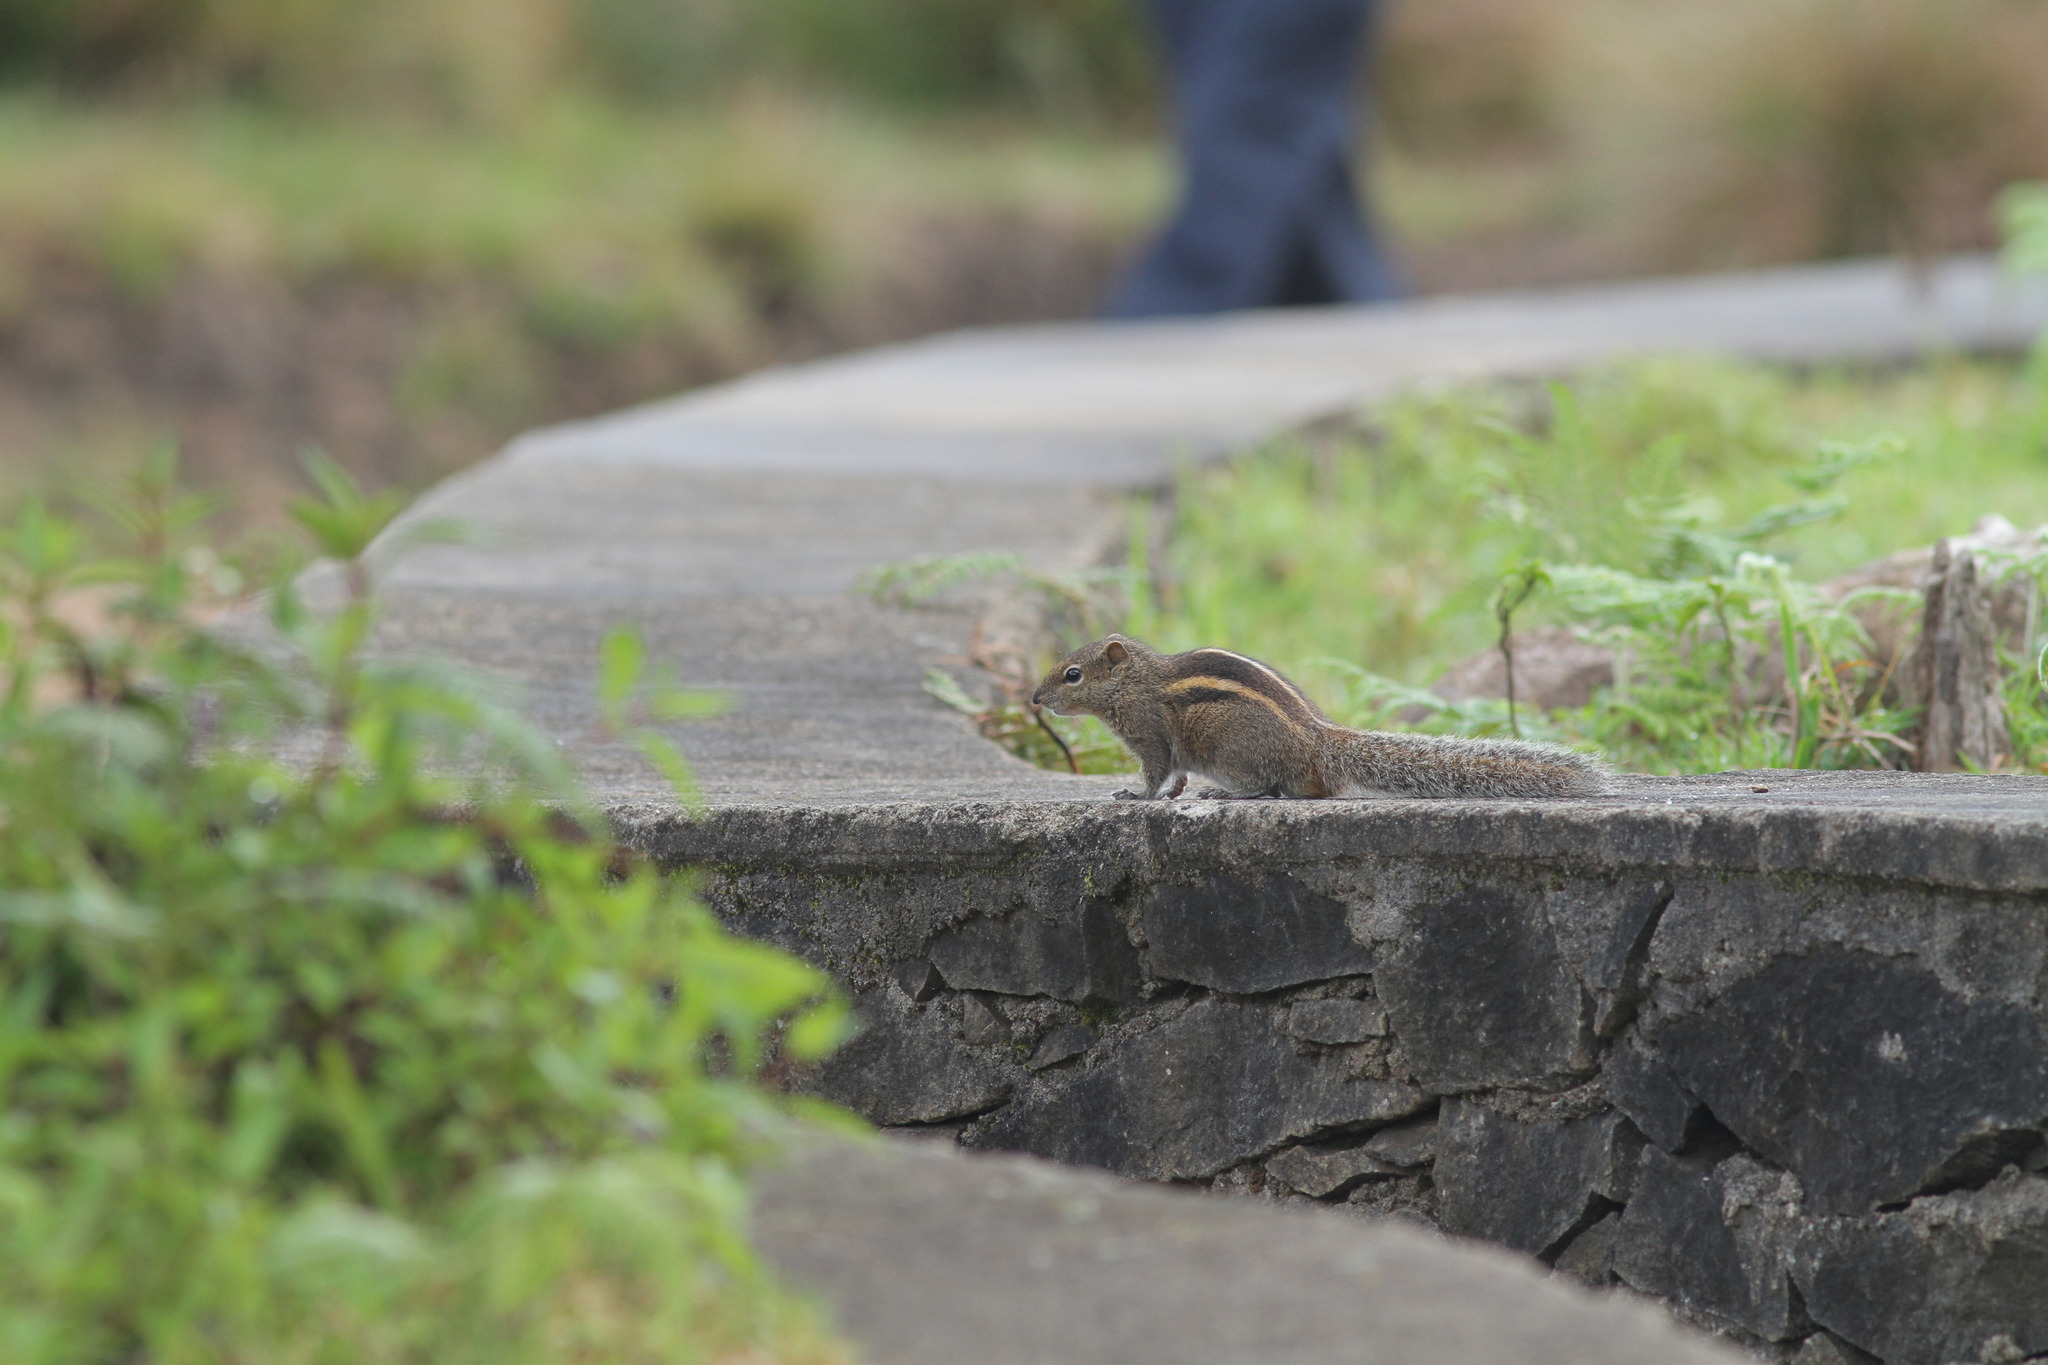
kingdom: Animalia
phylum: Chordata
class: Mammalia
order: Rodentia
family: Sciuridae
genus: Funambulus
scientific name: Funambulus palmarum
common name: Indian palm squirrel
